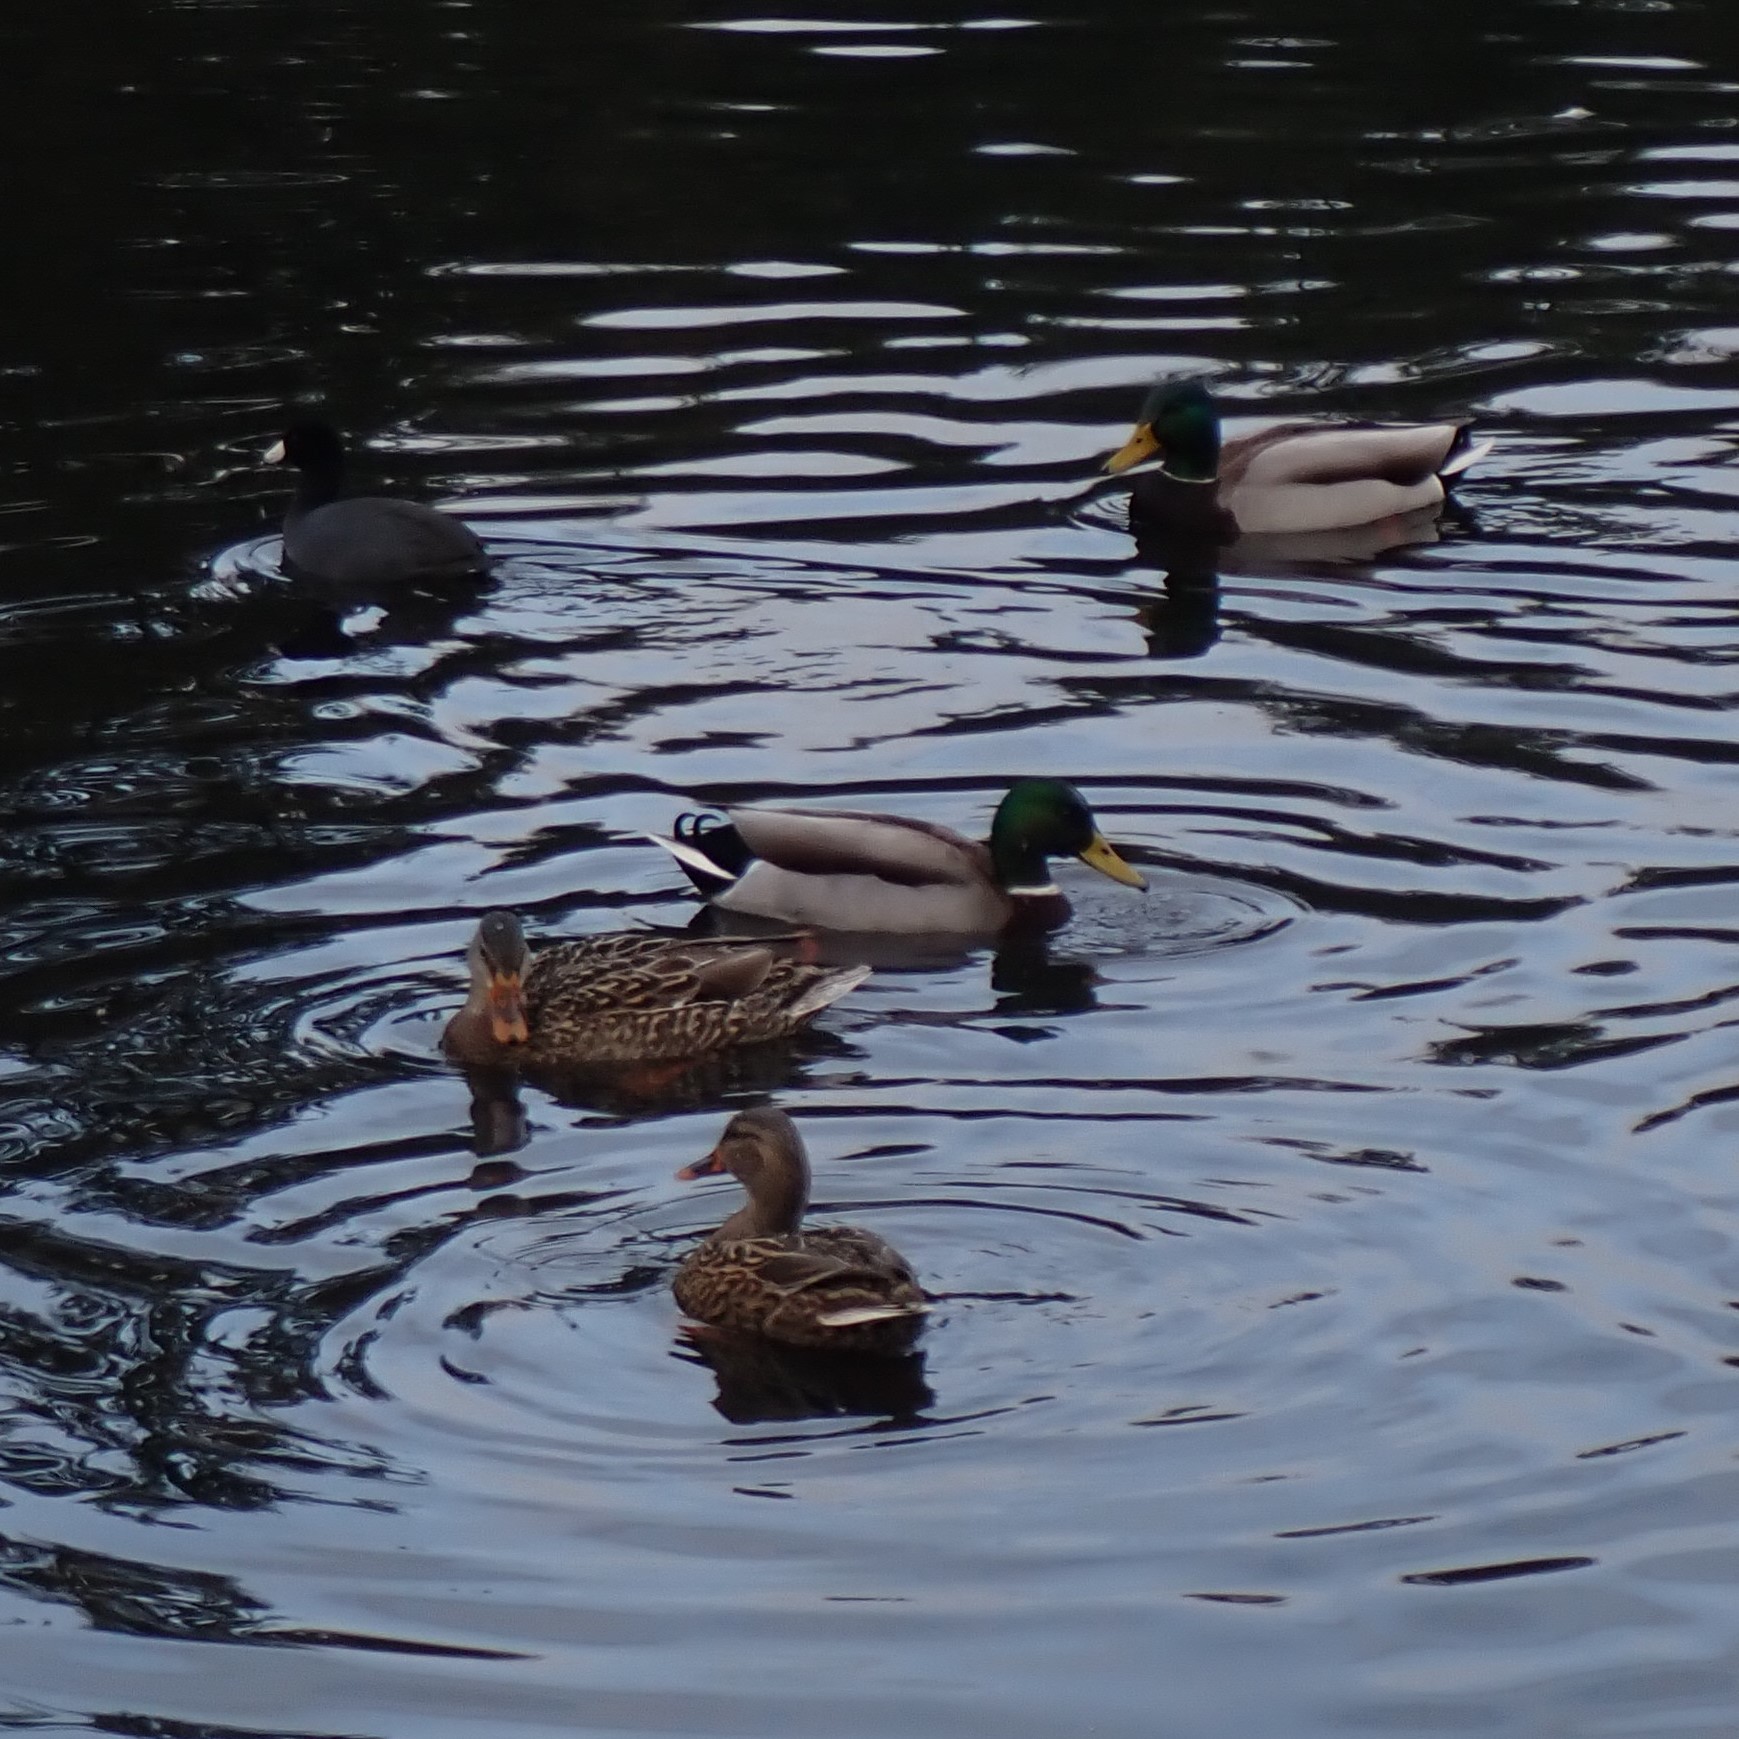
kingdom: Animalia
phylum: Chordata
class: Aves
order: Anseriformes
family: Anatidae
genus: Anas
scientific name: Anas platyrhynchos
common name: Mallard
